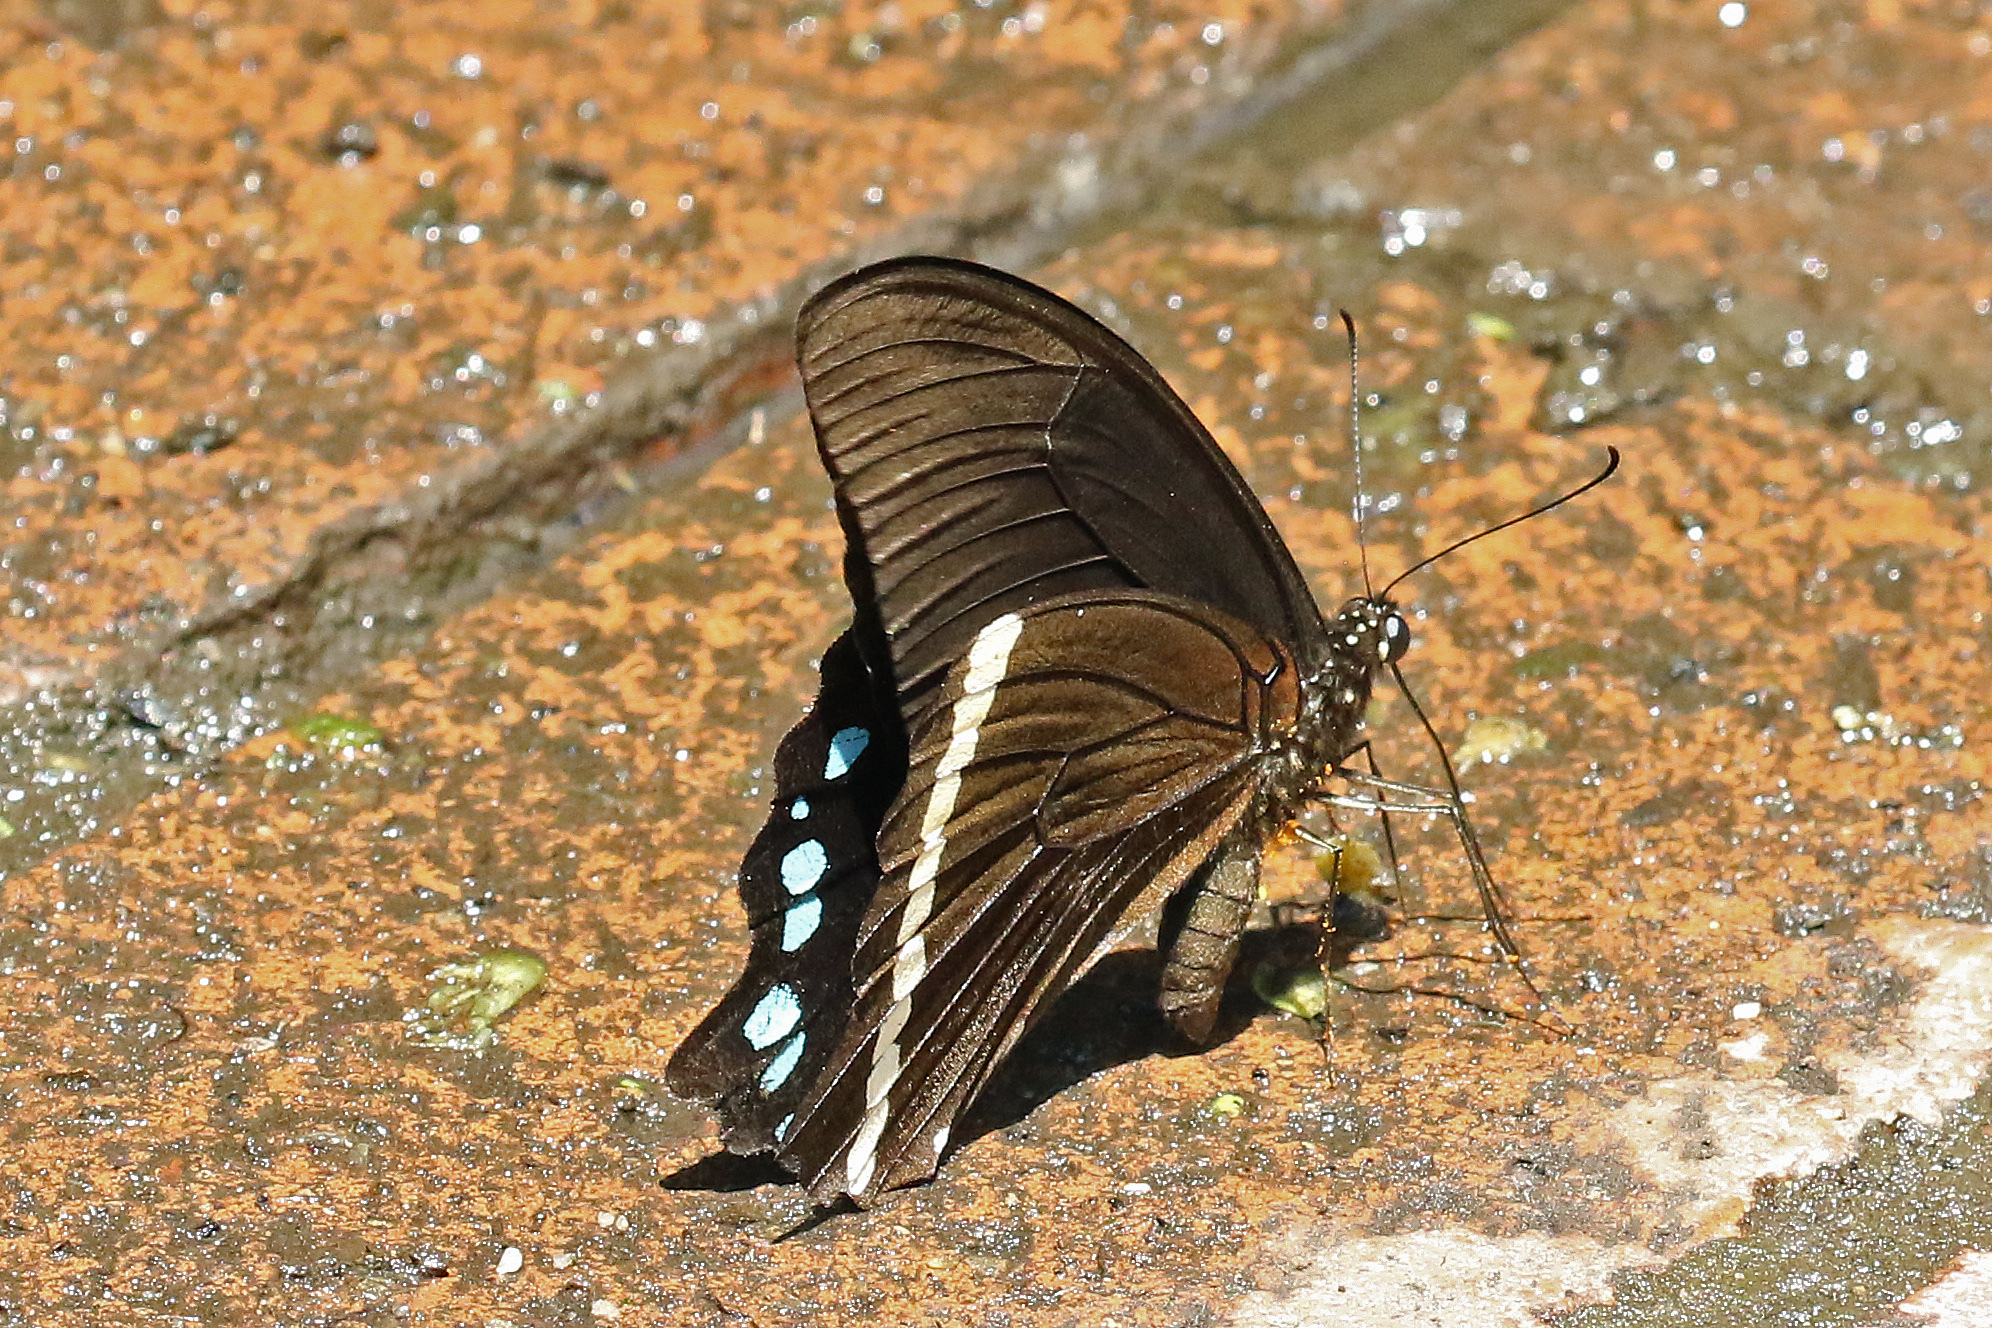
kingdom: Animalia
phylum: Arthropoda
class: Insecta
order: Lepidoptera
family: Papilionidae
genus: Papilio
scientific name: Papilio nireus
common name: Greenbanded swallowtail
